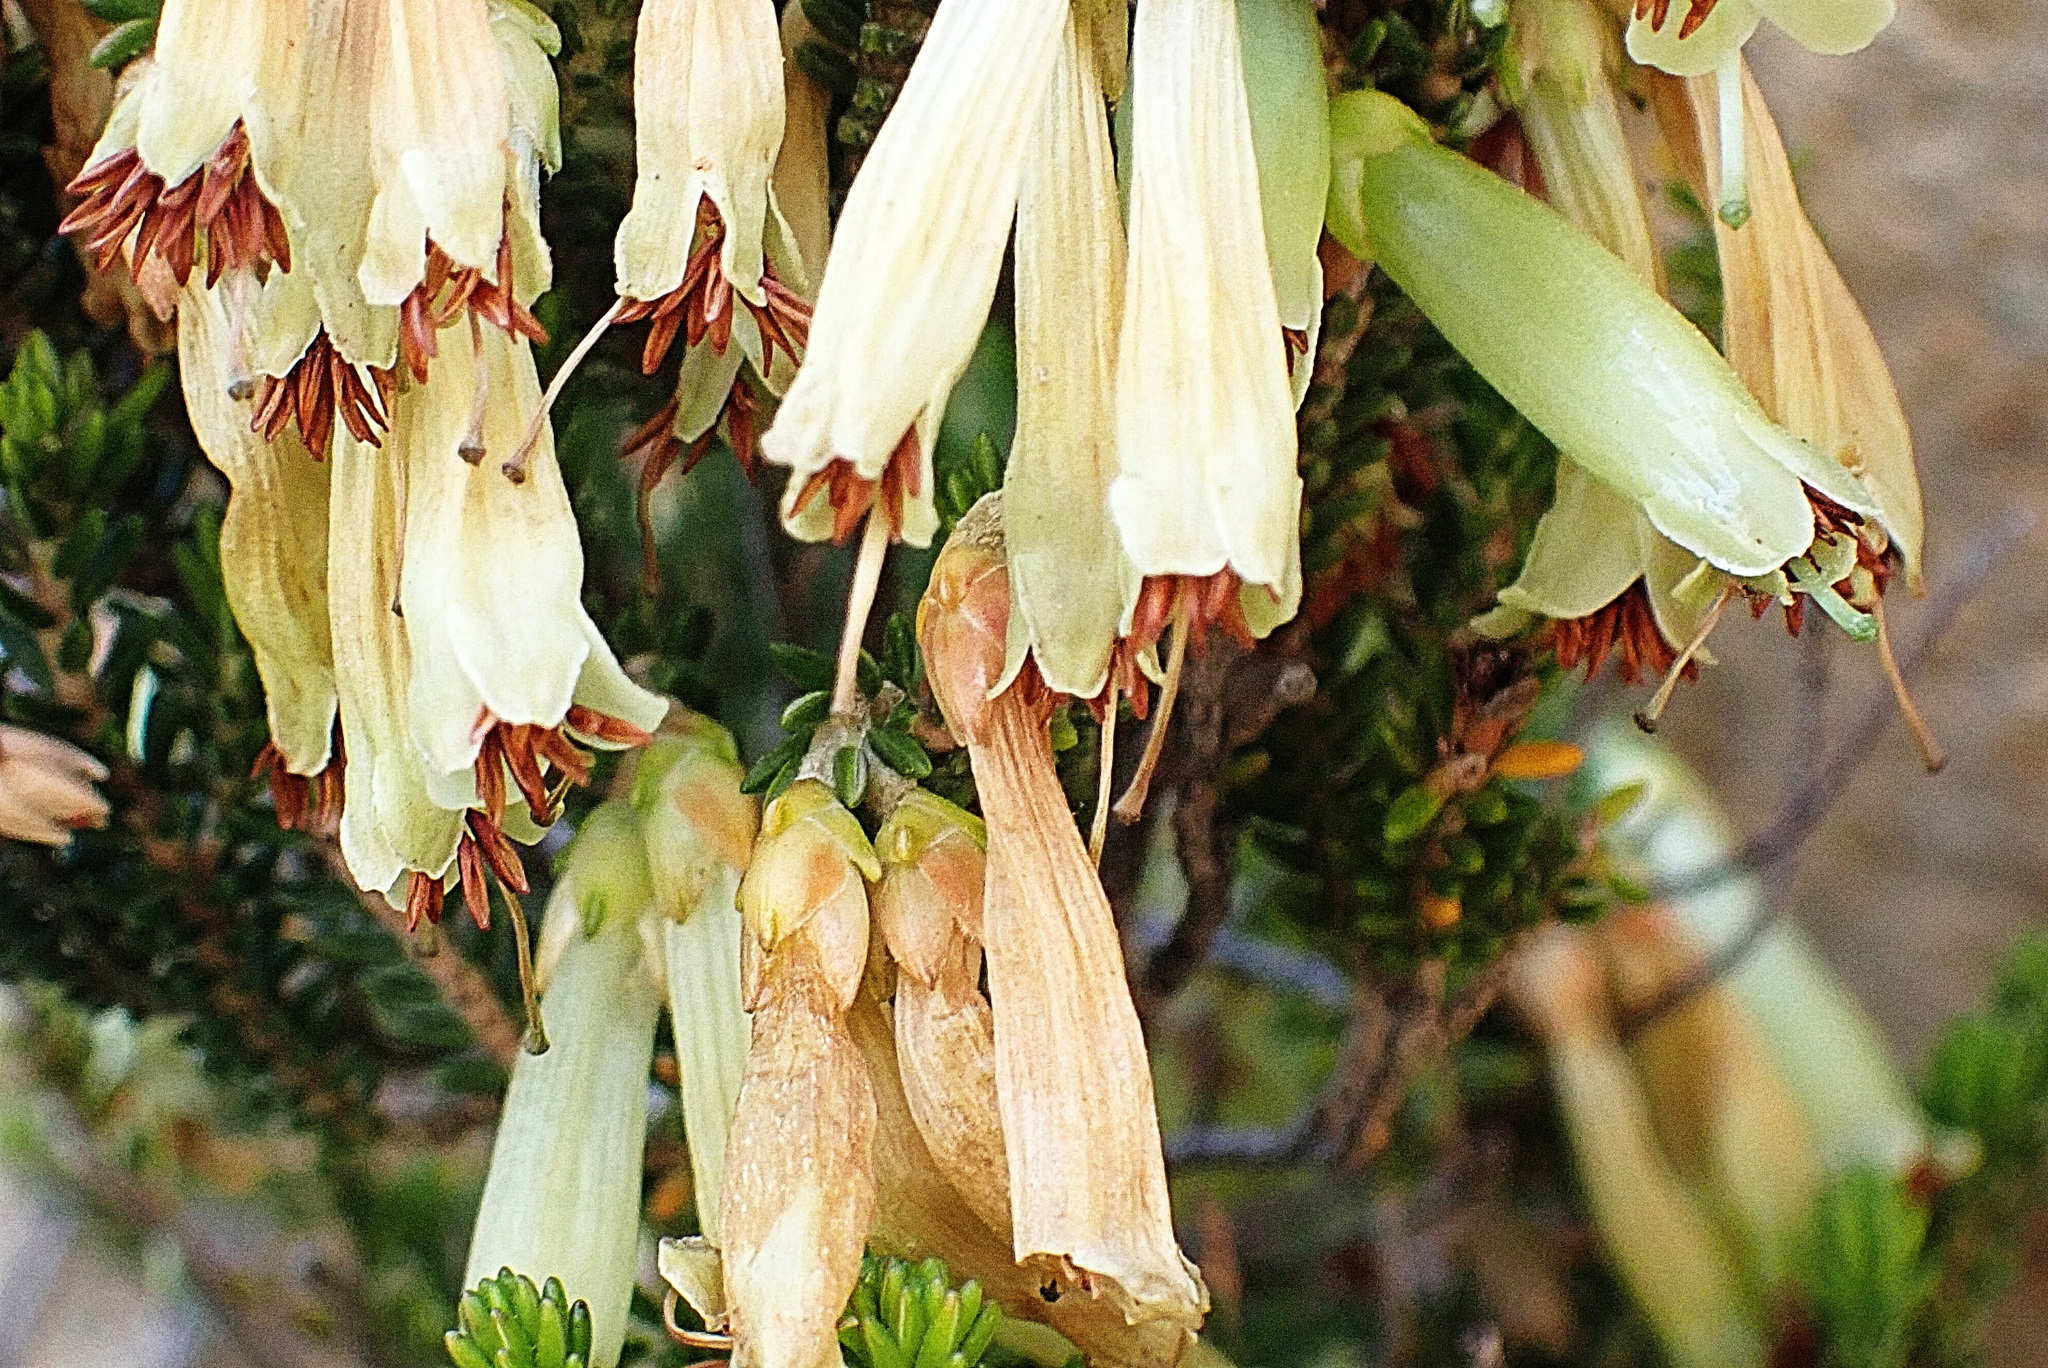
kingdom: Plantae
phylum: Tracheophyta
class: Magnoliopsida
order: Ericales
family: Ericaceae
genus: Erica
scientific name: Erica viridiflora
